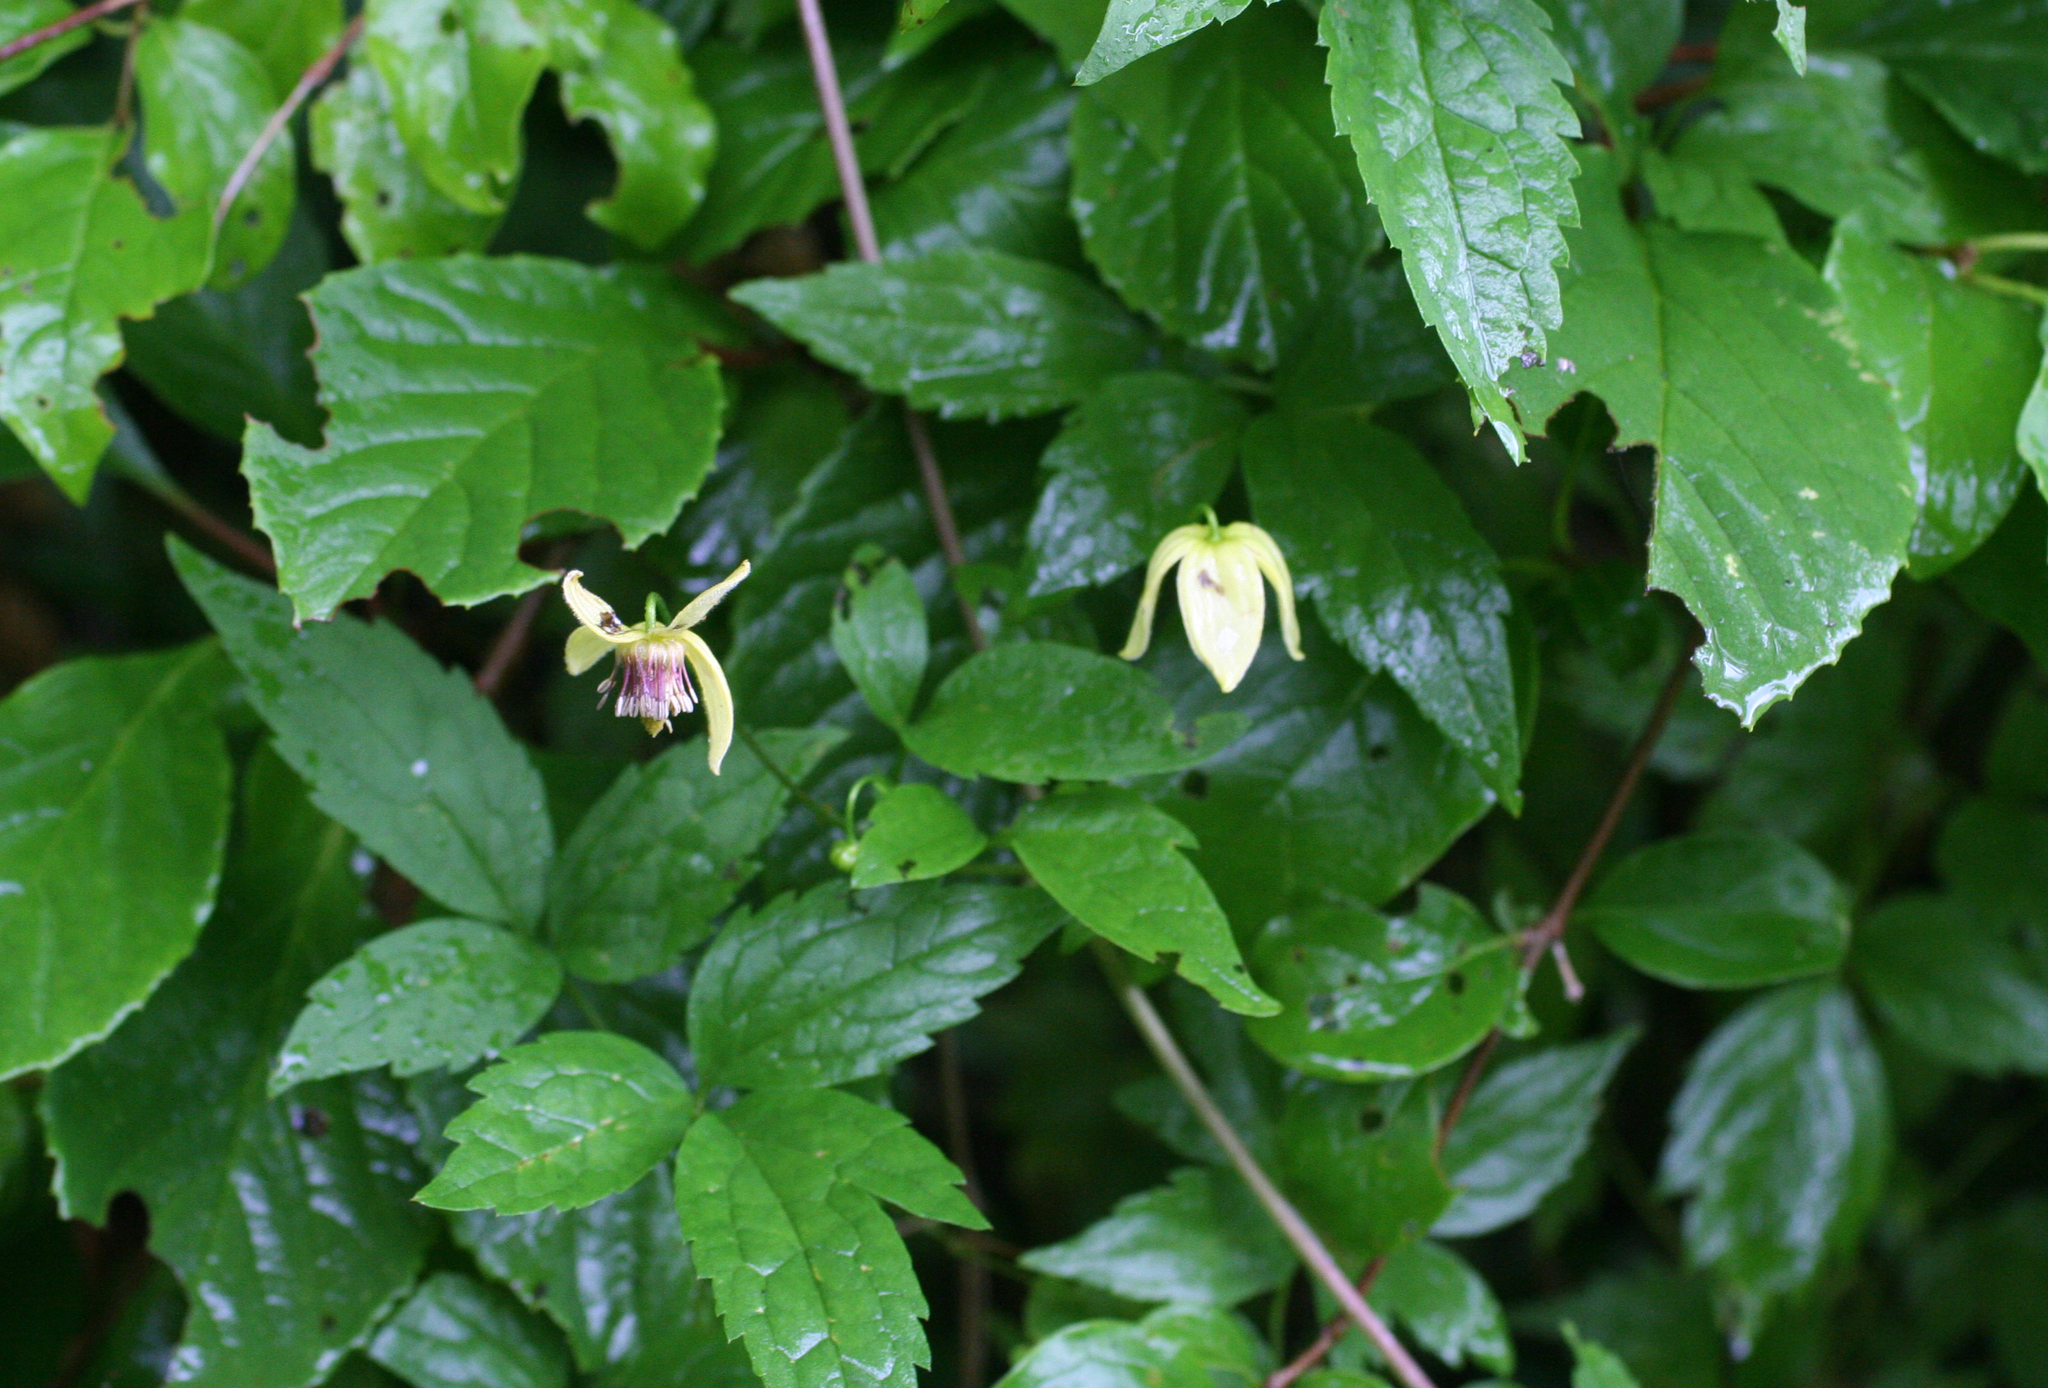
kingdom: Plantae
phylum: Tracheophyta
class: Magnoliopsida
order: Ranunculales
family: Ranunculaceae
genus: Clematis
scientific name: Clematis serratifolia
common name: Korean clematis
